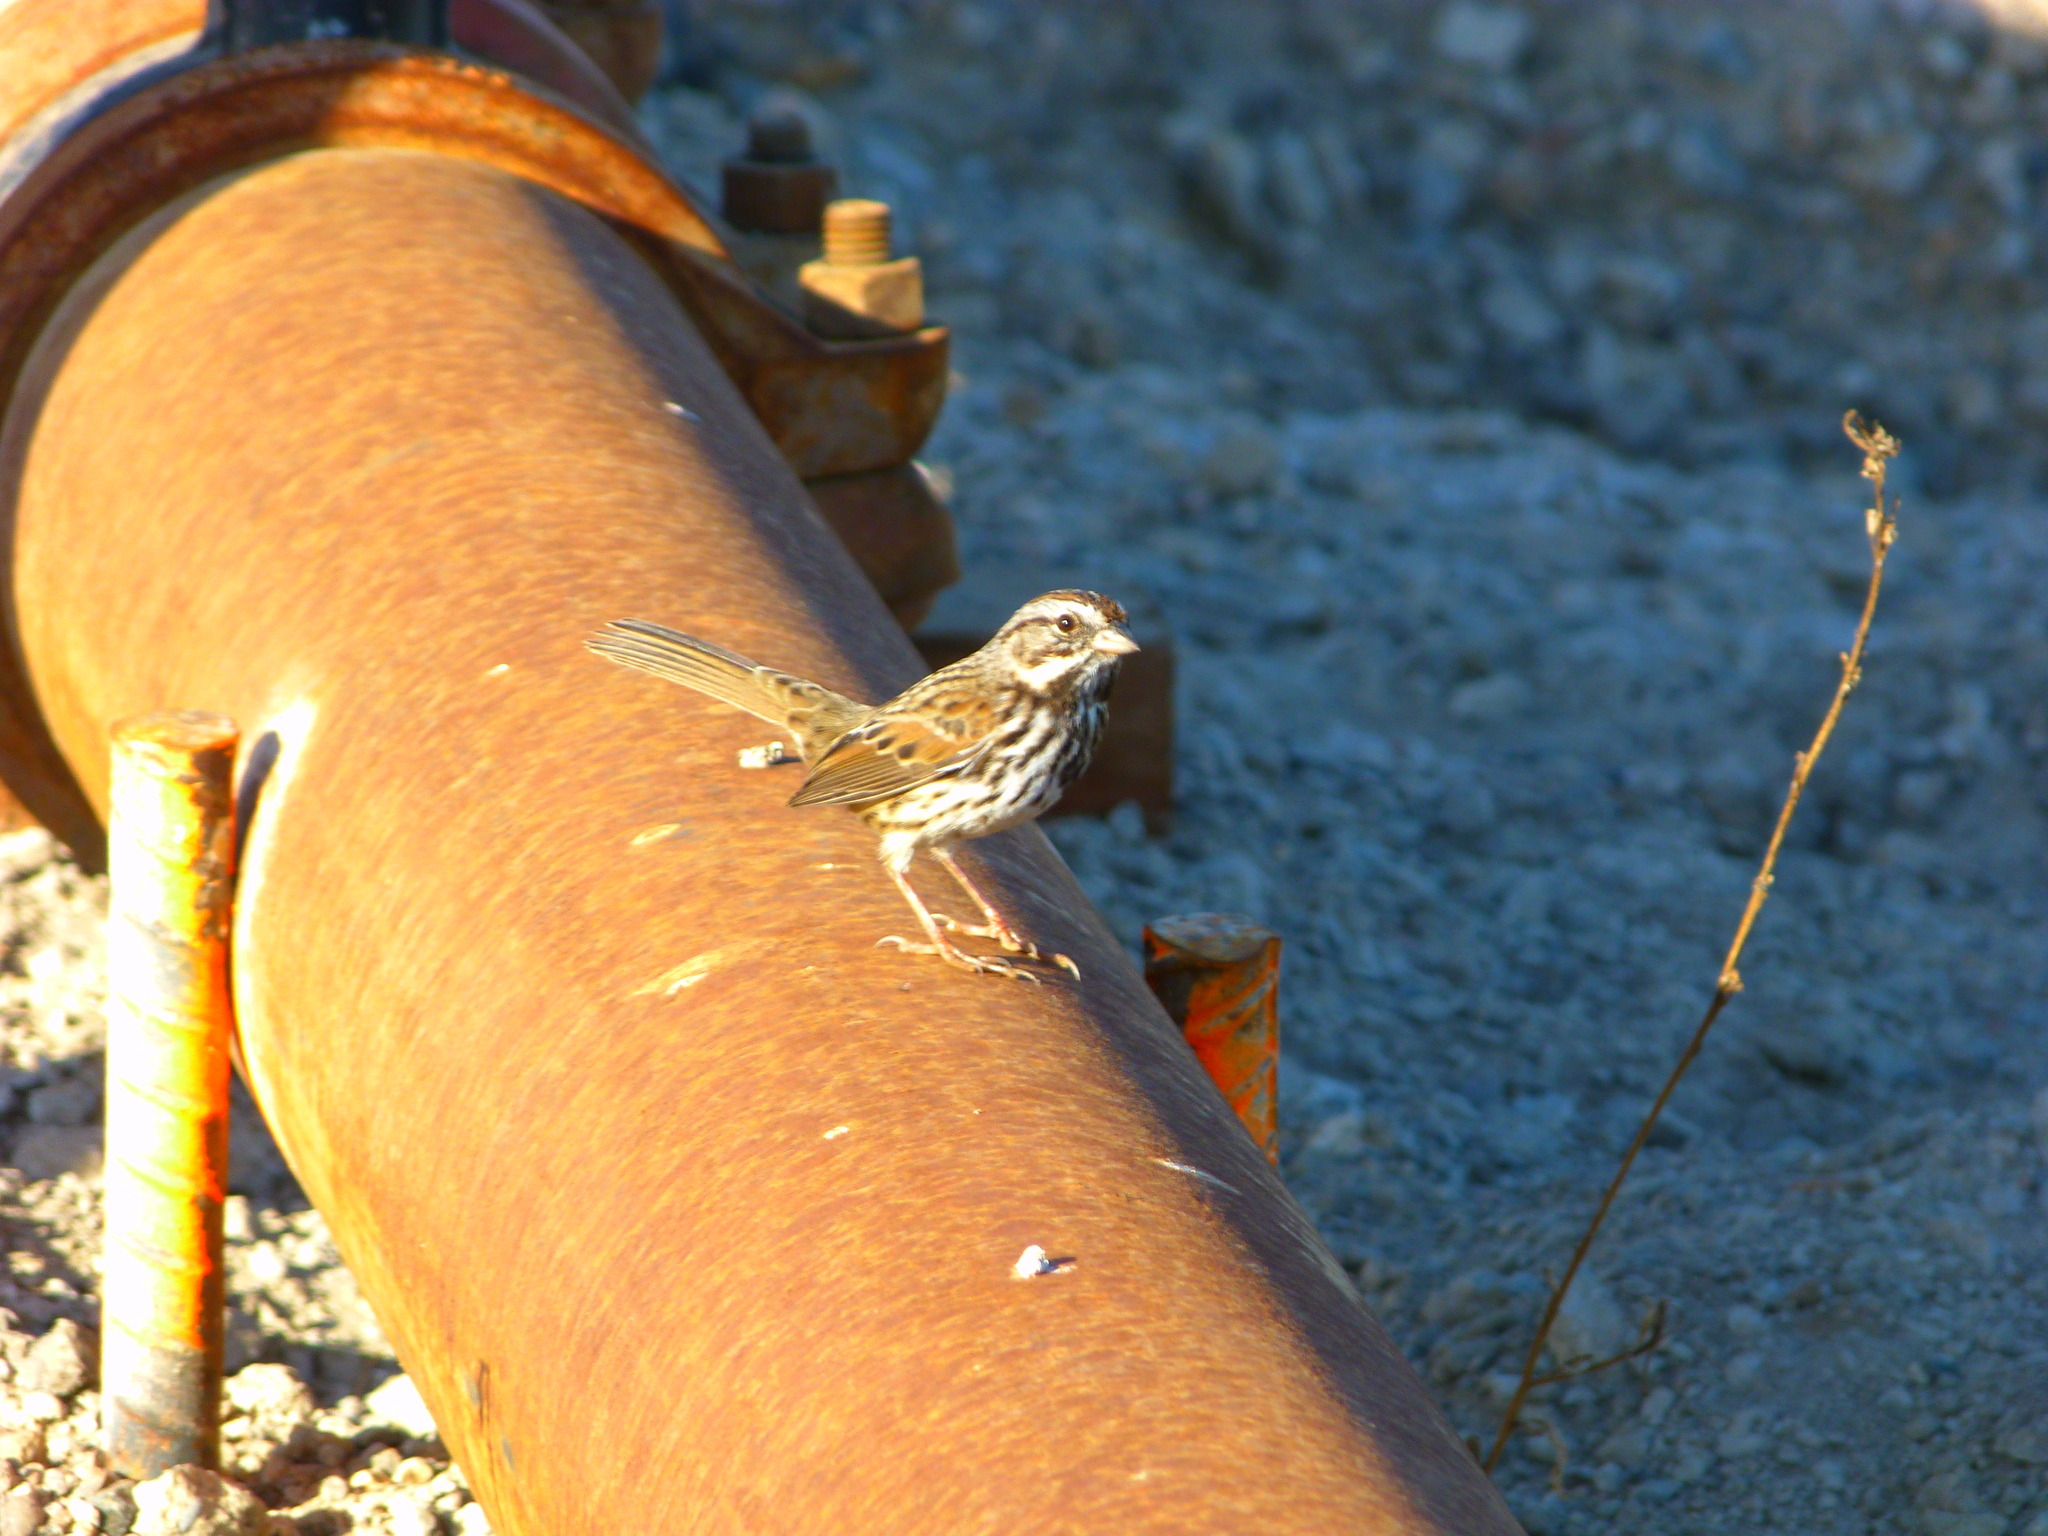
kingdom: Animalia
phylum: Chordata
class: Aves
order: Passeriformes
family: Passerellidae
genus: Melospiza
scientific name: Melospiza melodia
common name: Song sparrow
